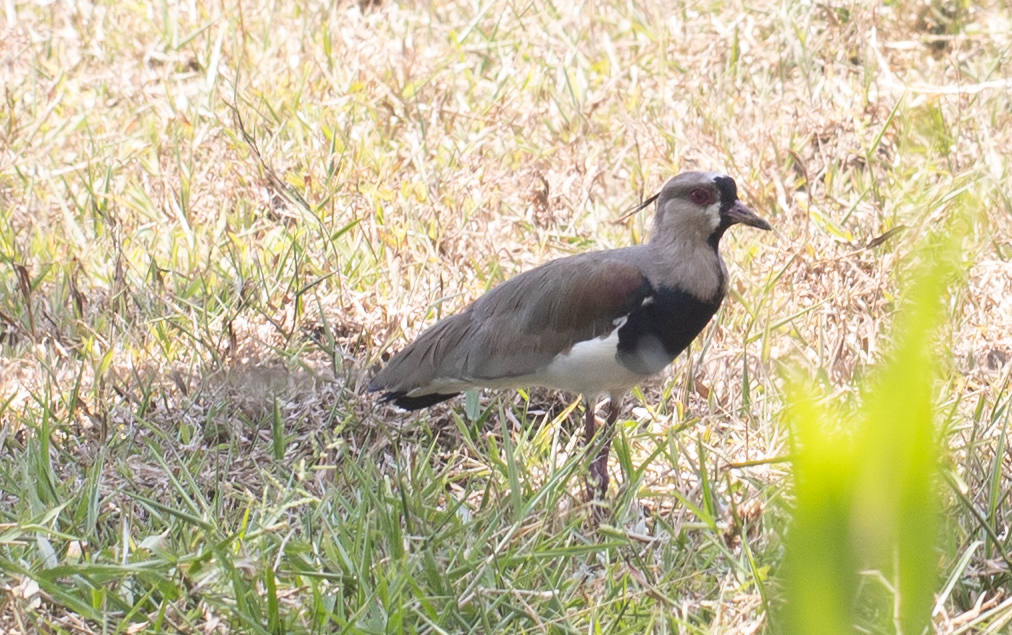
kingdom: Animalia
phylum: Chordata
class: Aves
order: Charadriiformes
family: Charadriidae
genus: Vanellus
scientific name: Vanellus chilensis
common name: Southern lapwing
